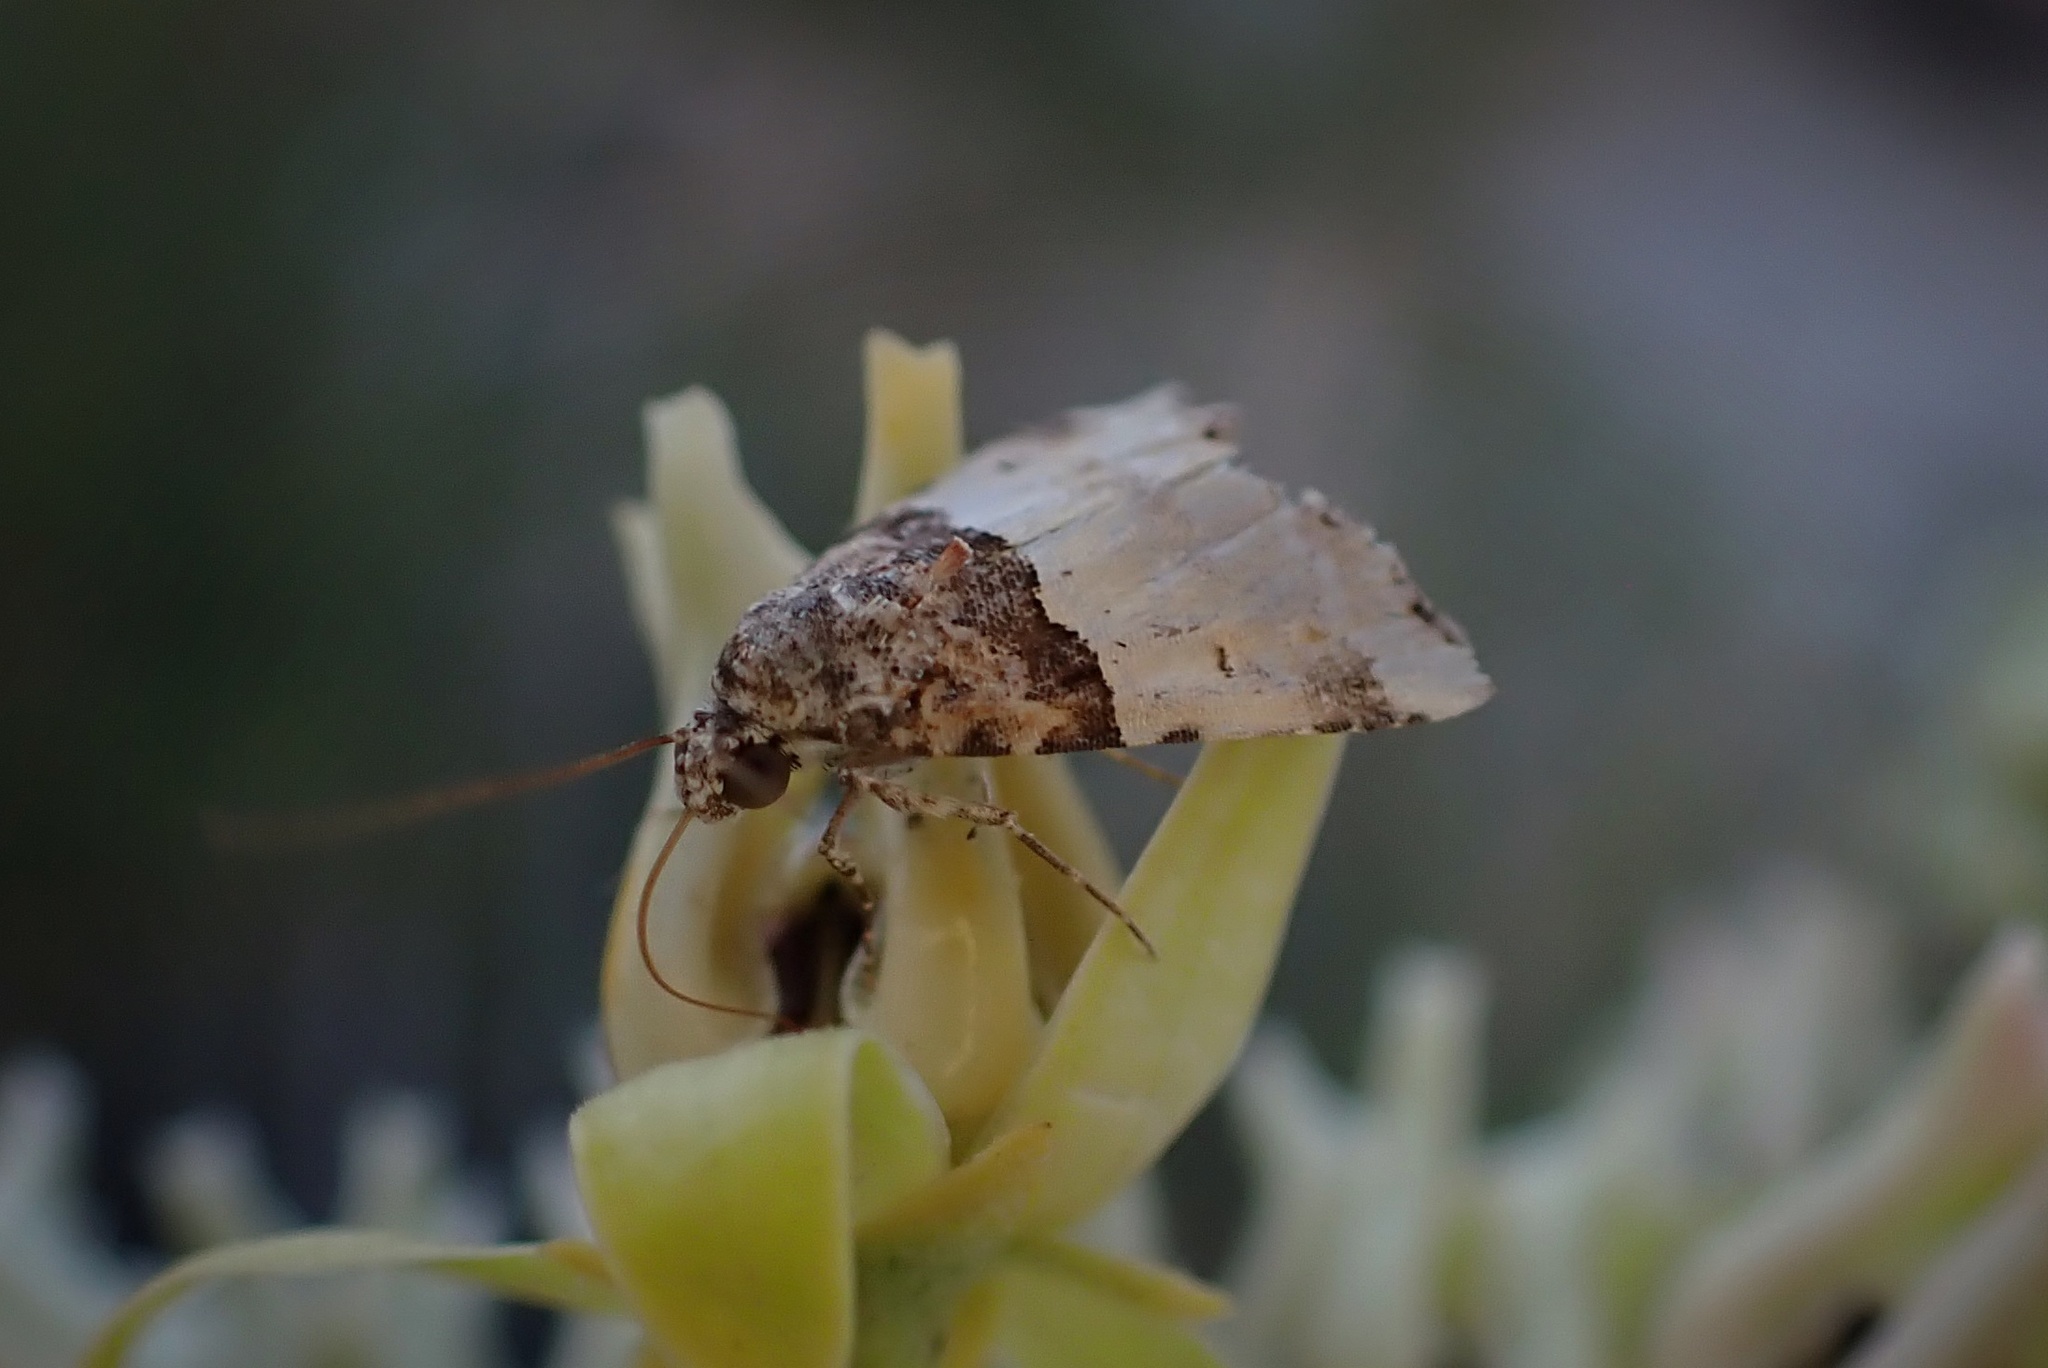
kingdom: Animalia
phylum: Arthropoda
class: Insecta
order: Lepidoptera
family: Noctuidae
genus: Cobubatha
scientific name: Cobubatha dividua
